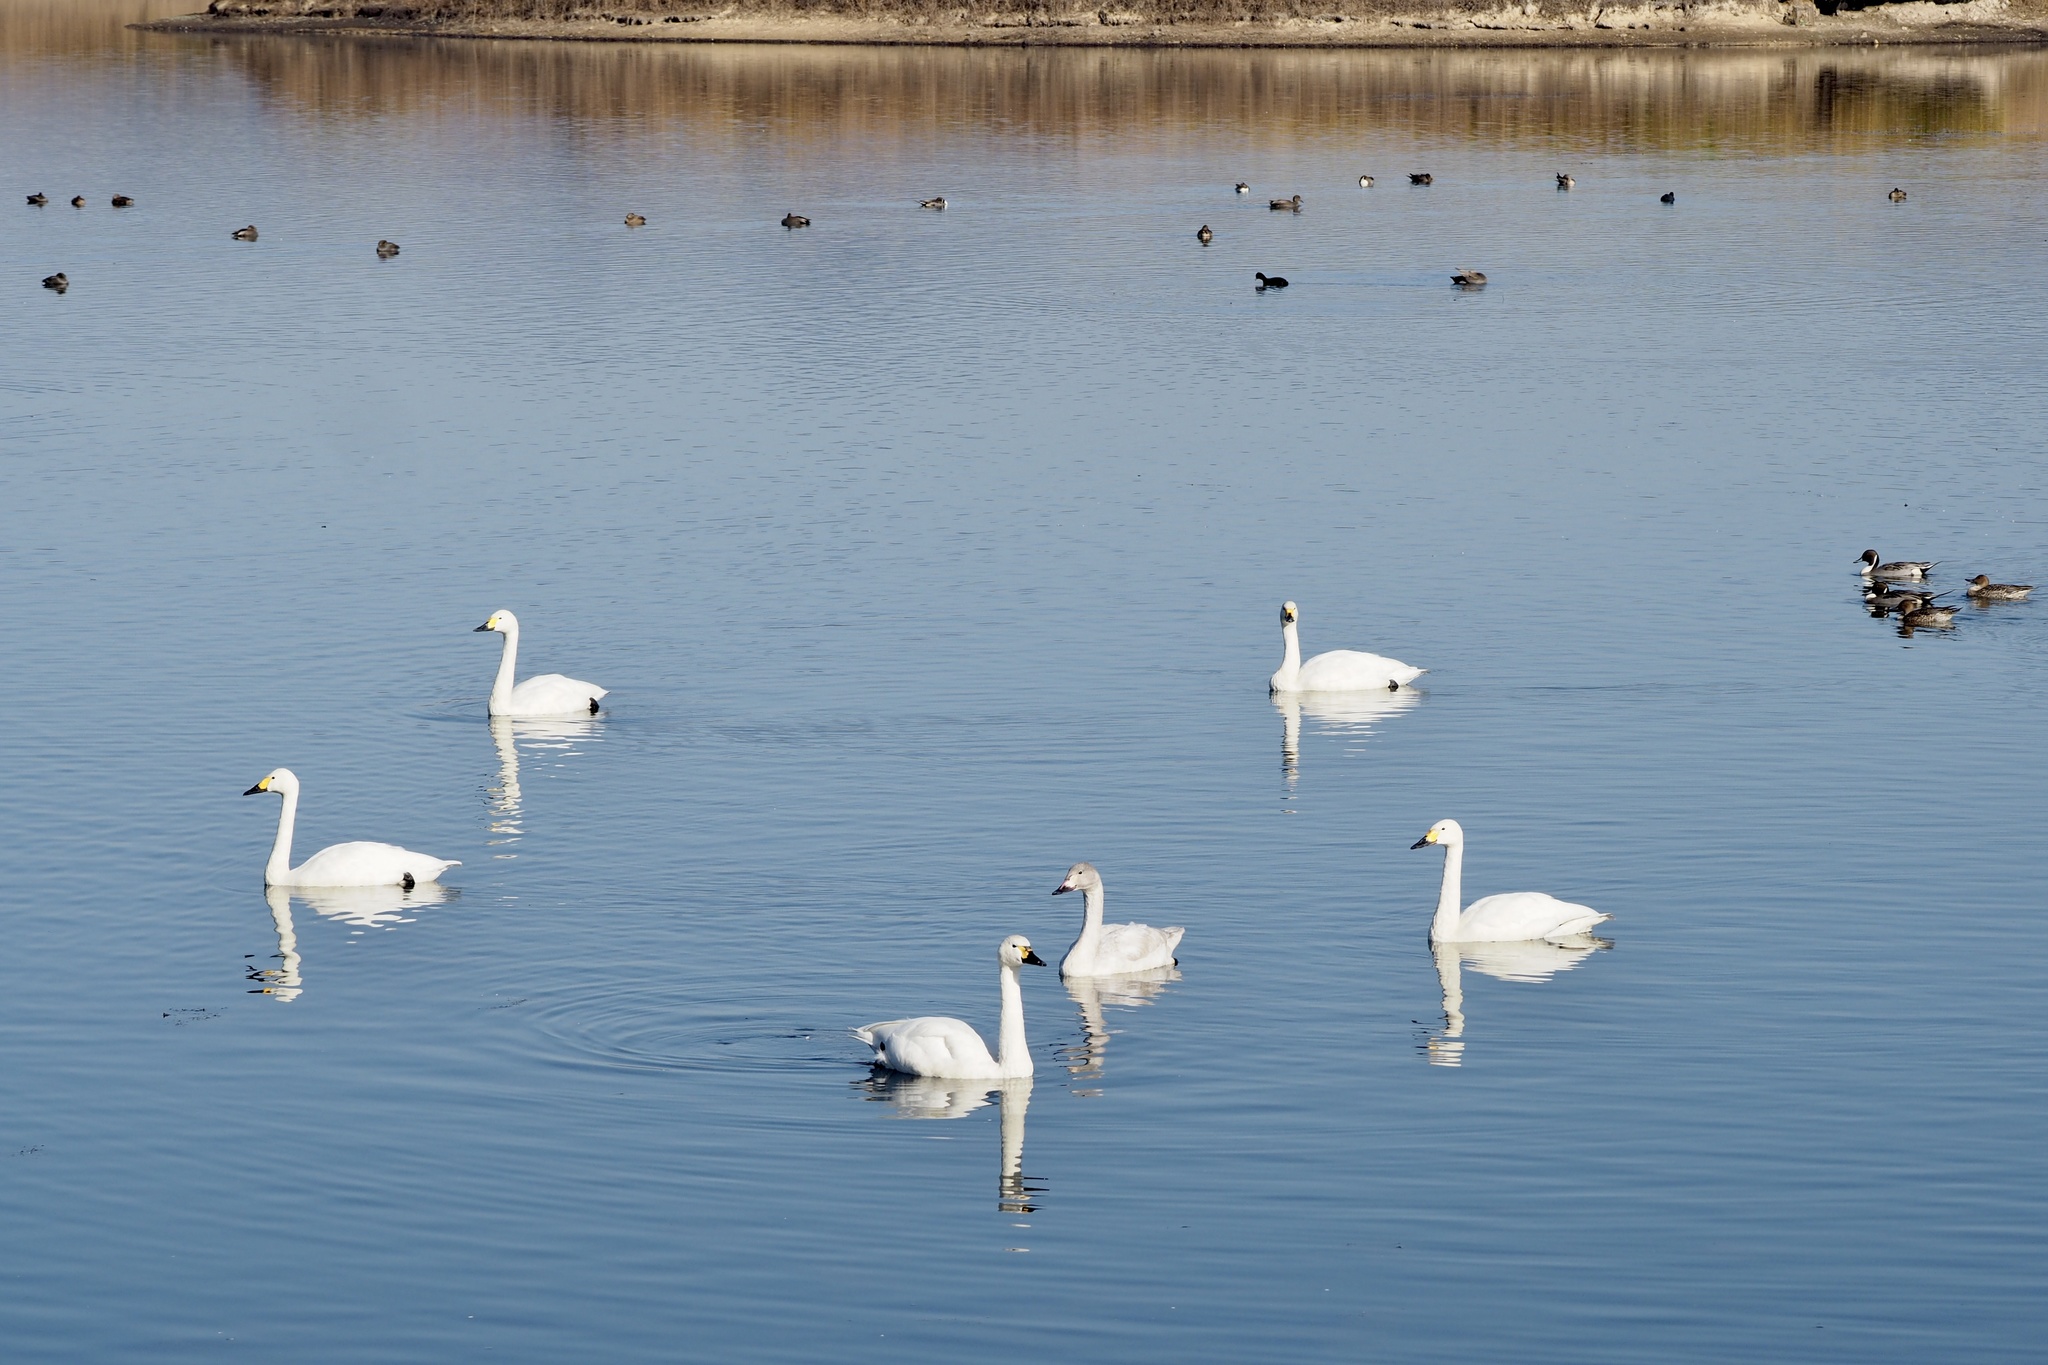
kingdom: Animalia
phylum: Chordata
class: Aves
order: Anseriformes
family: Anatidae
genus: Cygnus
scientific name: Cygnus columbianus
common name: Tundra swan
